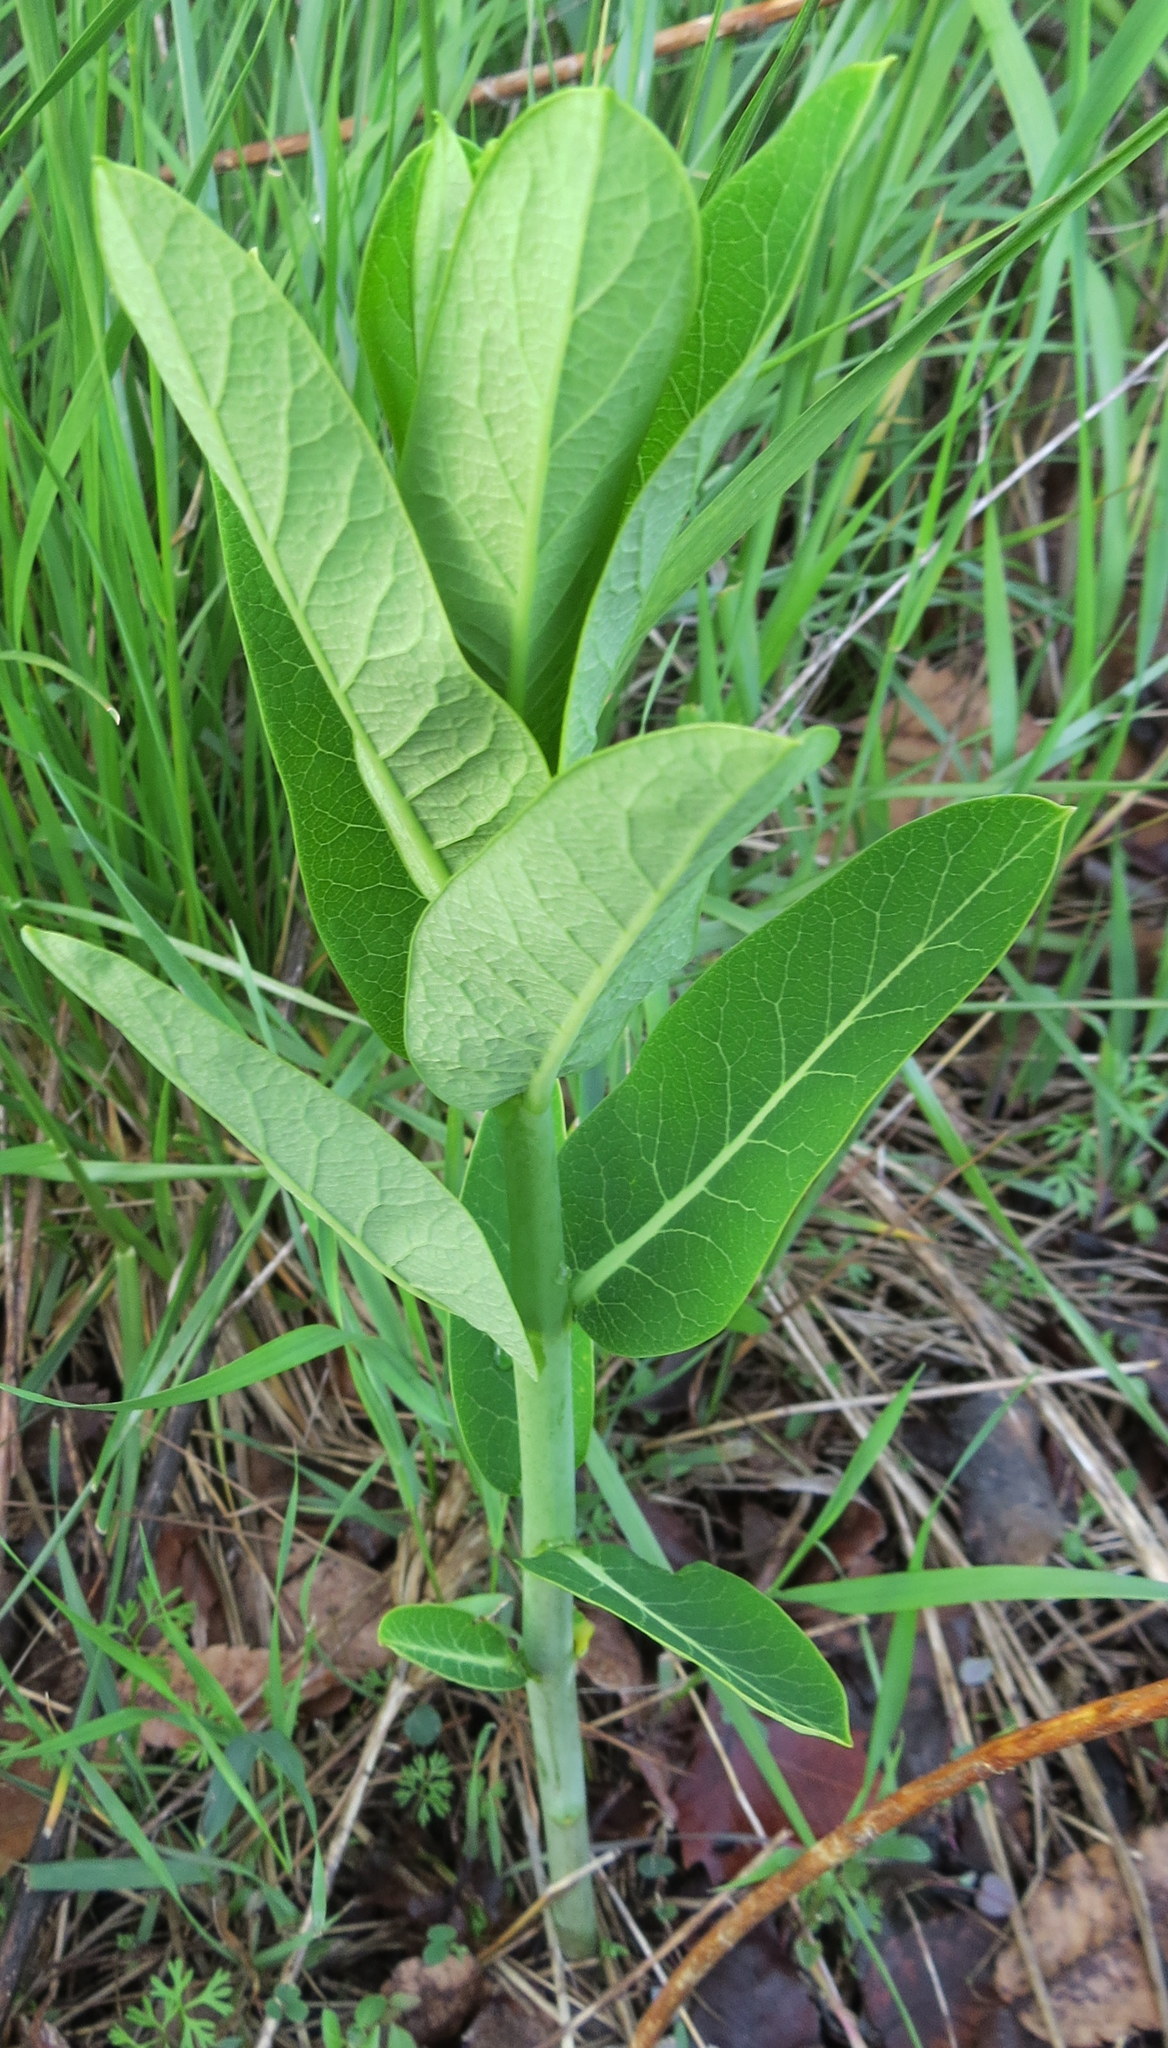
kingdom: Plantae
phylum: Tracheophyta
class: Magnoliopsida
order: Gentianales
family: Apocynaceae
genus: Apocynum
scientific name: Apocynum cannabinum
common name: Hemp dogbane
